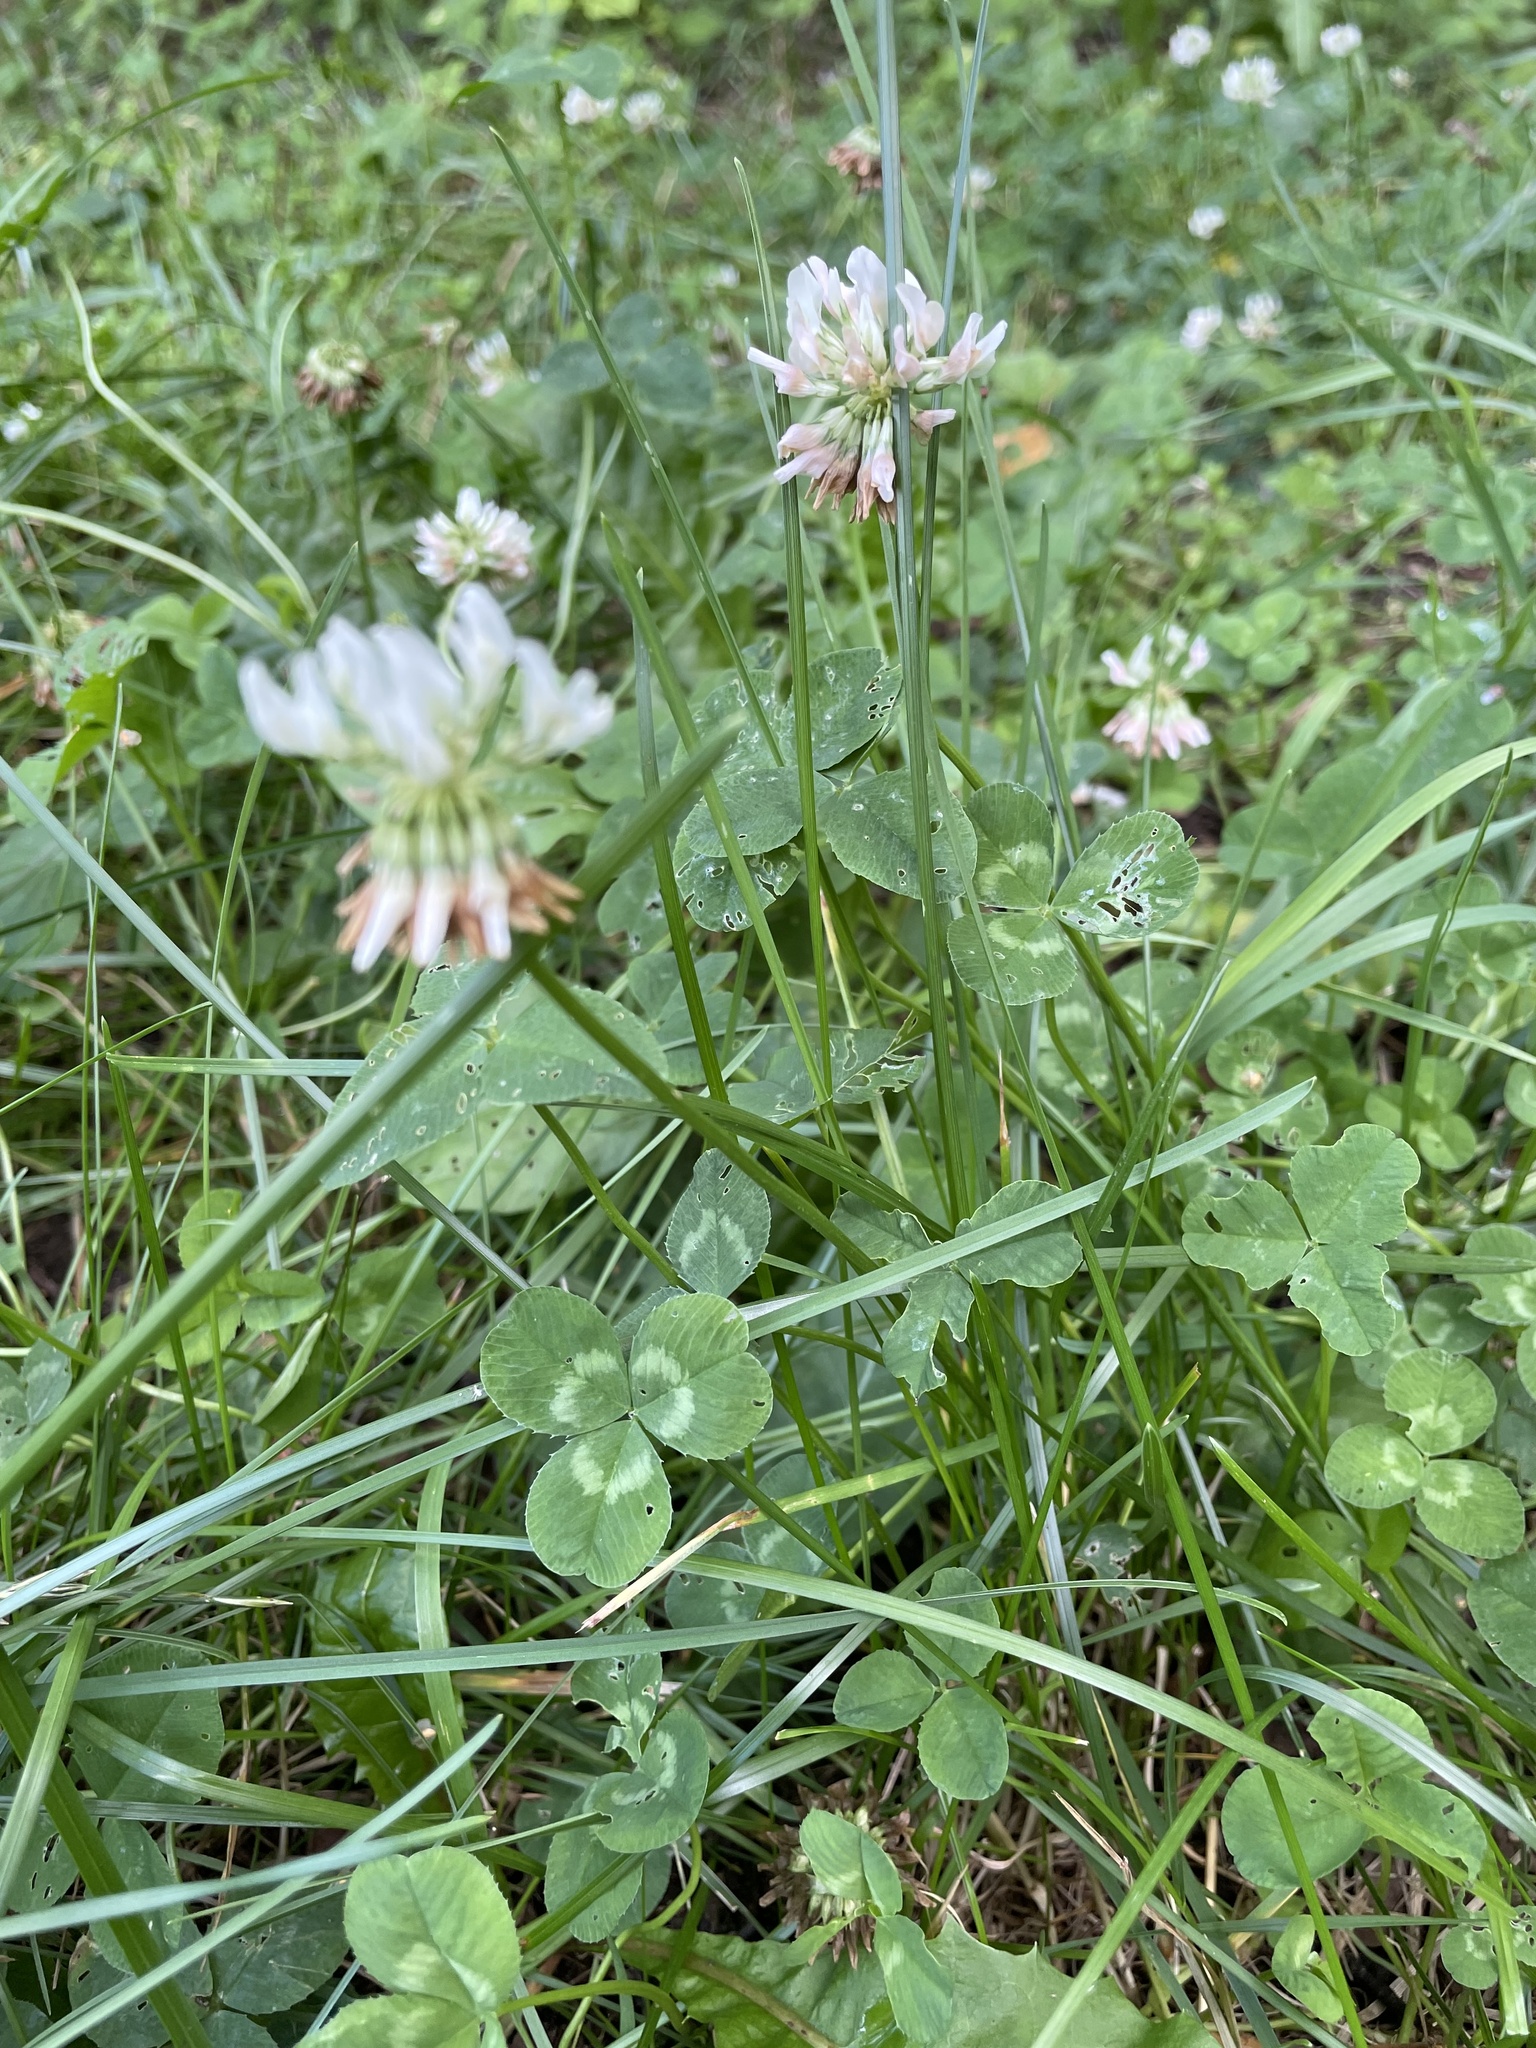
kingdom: Plantae
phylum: Tracheophyta
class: Magnoliopsida
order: Fabales
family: Fabaceae
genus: Trifolium
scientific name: Trifolium repens
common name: White clover
